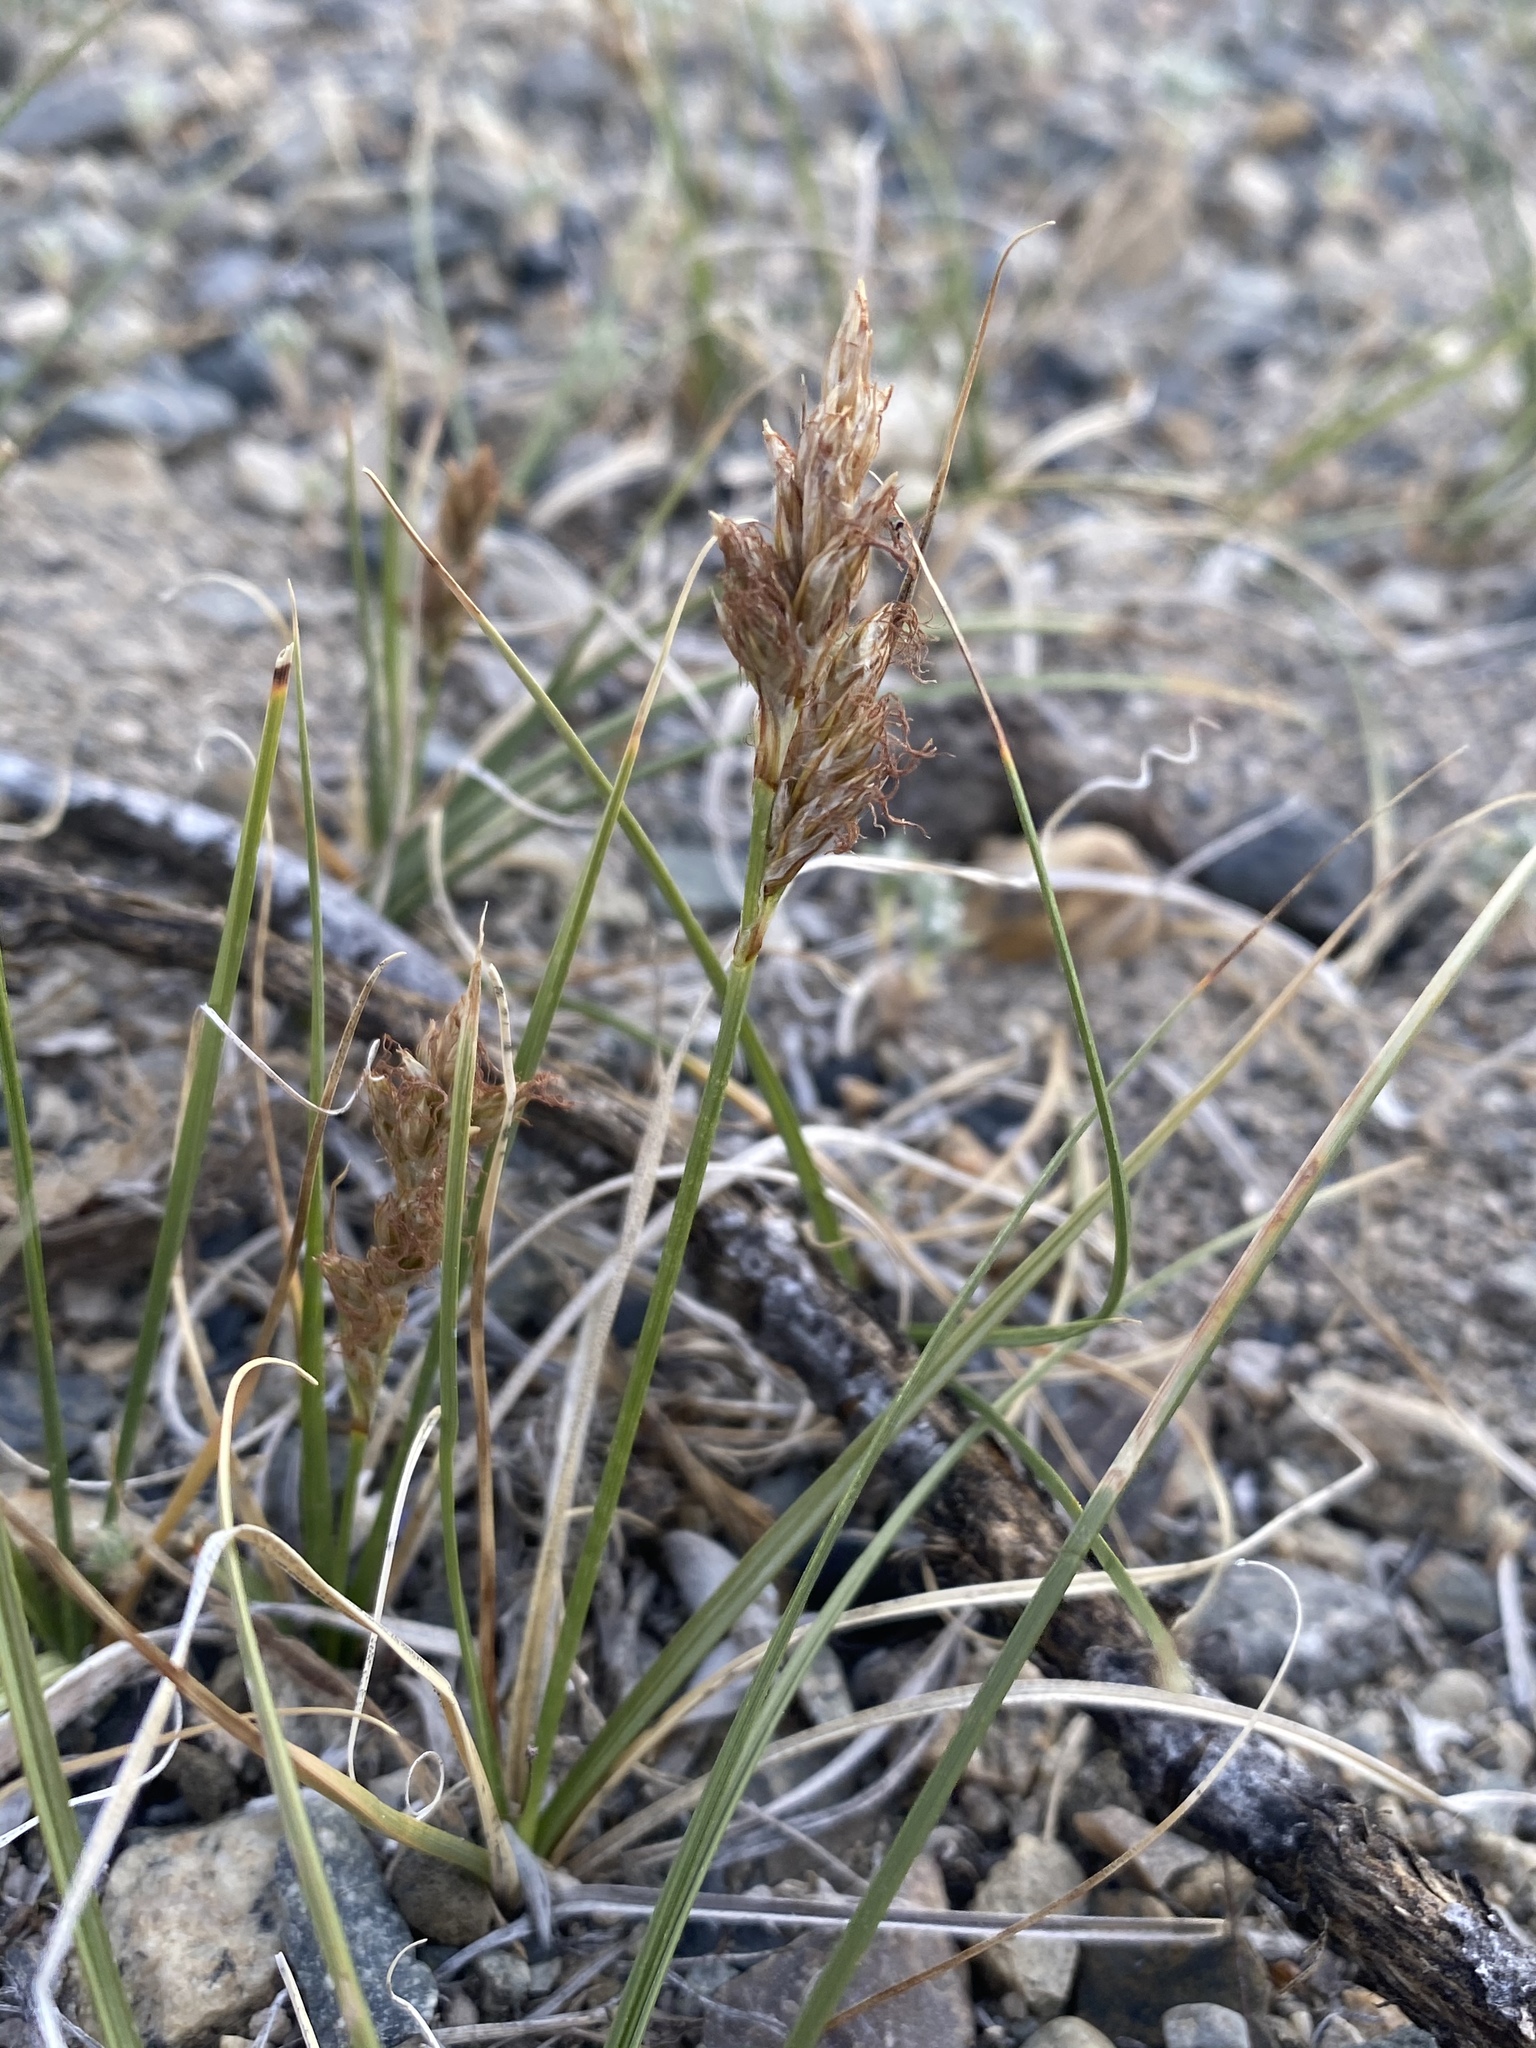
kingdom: Plantae
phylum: Tracheophyta
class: Liliopsida
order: Poales
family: Cyperaceae
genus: Carex
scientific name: Carex douglasii
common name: Douglas' sedge
